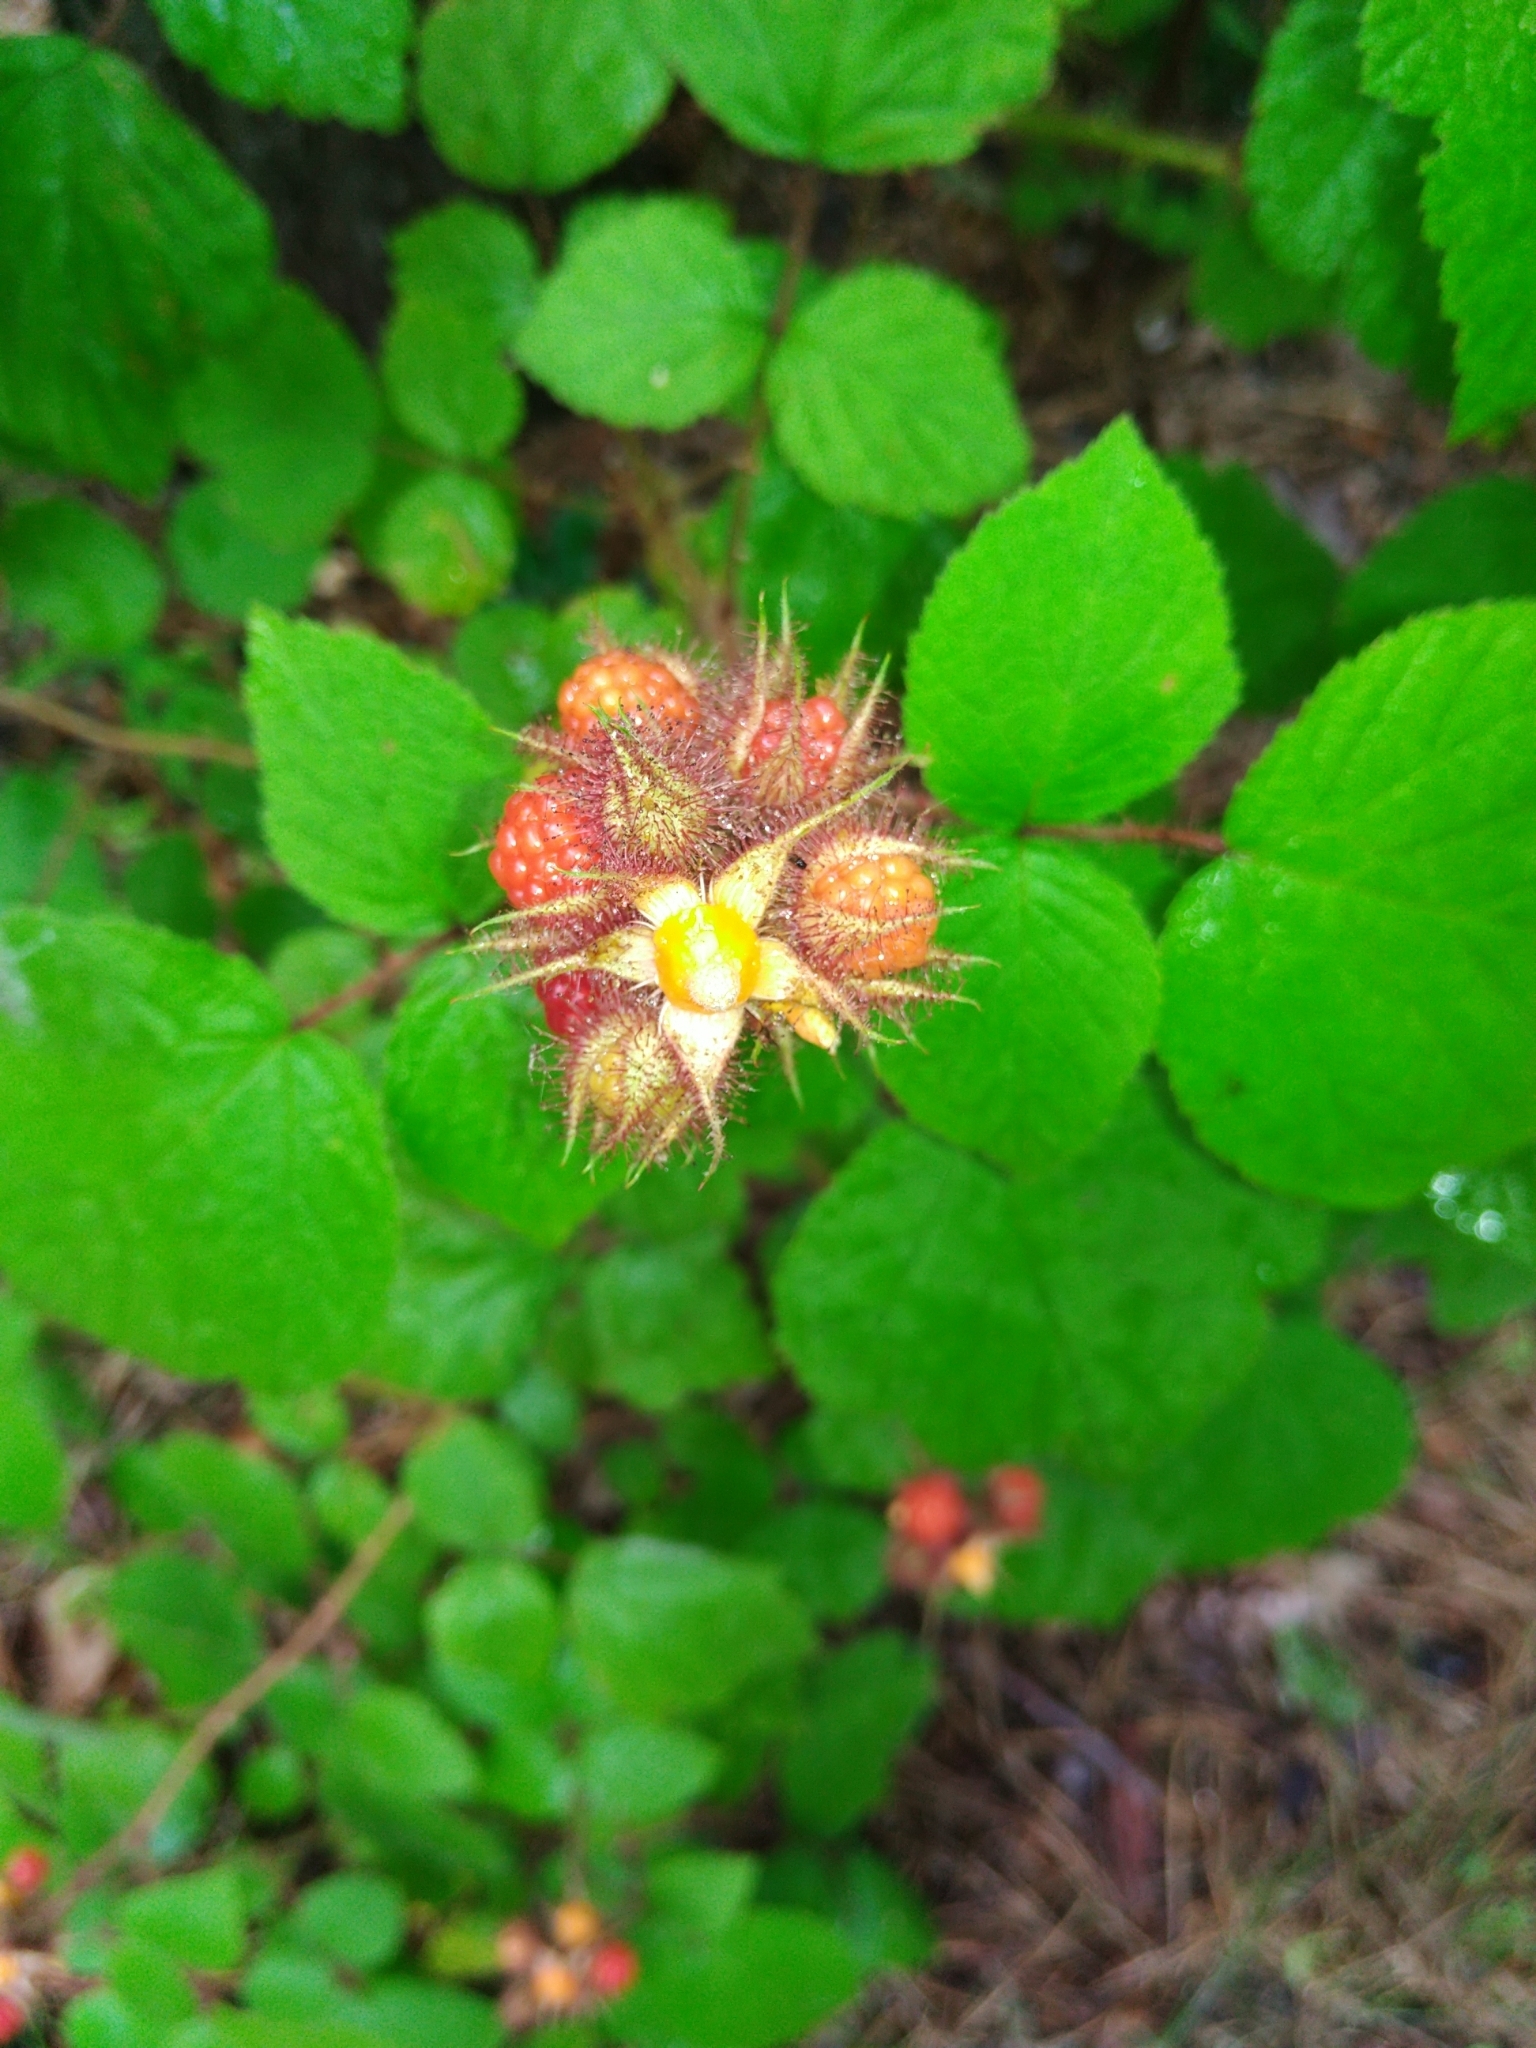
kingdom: Plantae
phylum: Tracheophyta
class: Magnoliopsida
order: Rosales
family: Rosaceae
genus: Rubus
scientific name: Rubus phoenicolasius
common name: Japanese wineberry
